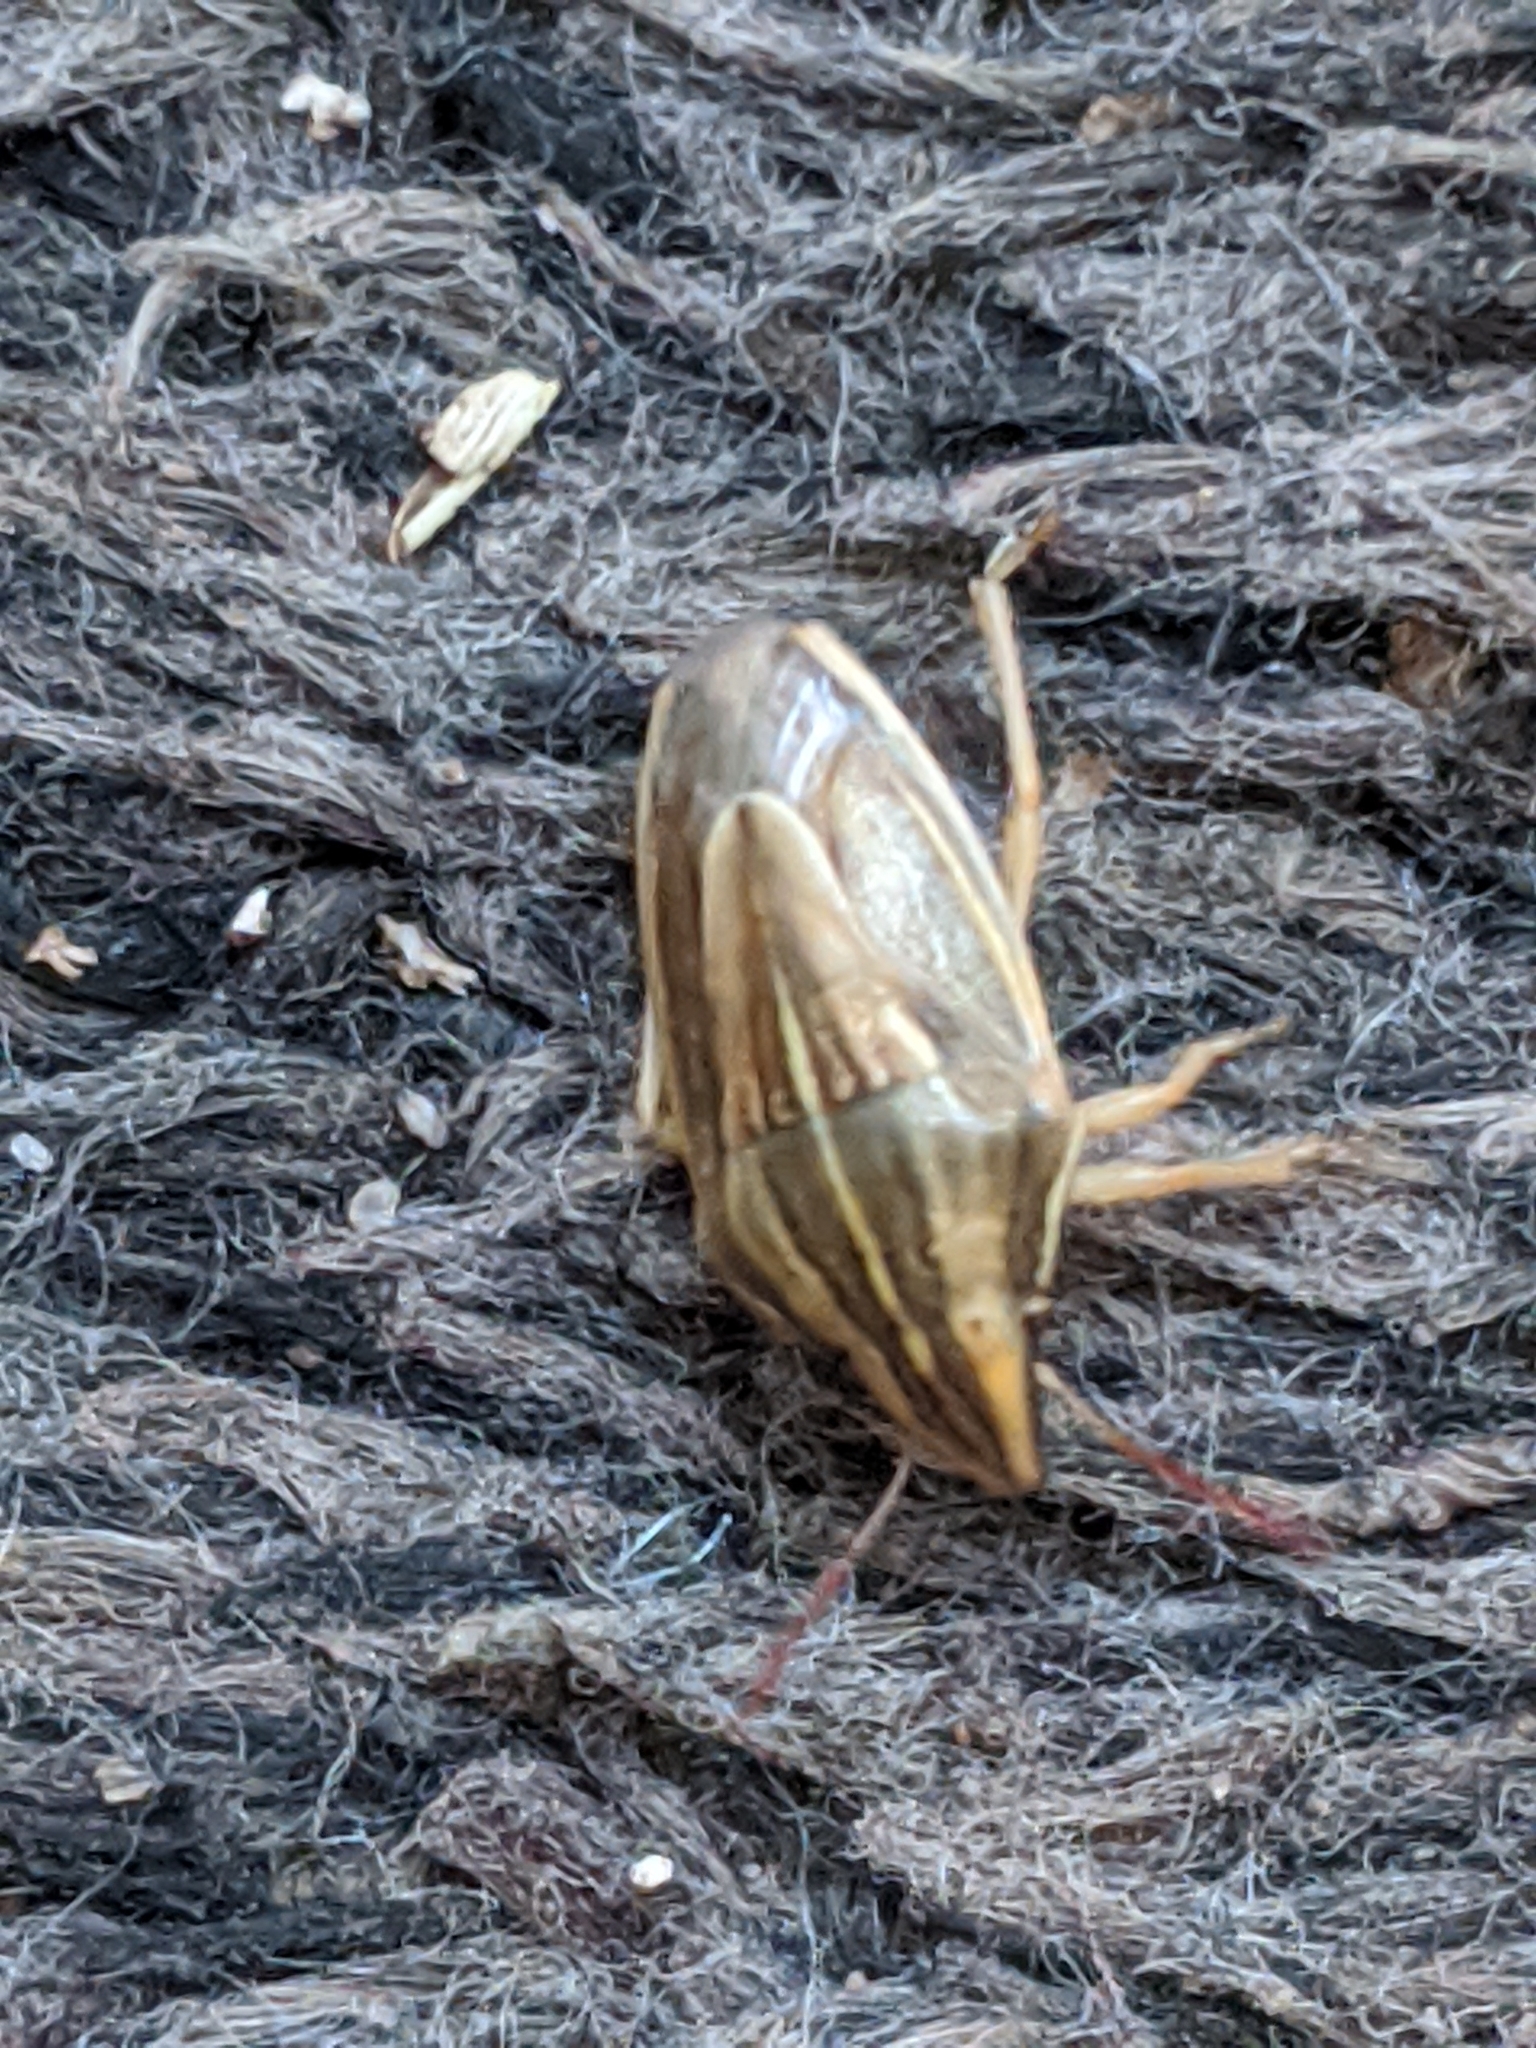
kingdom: Animalia
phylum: Arthropoda
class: Insecta
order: Hemiptera
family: Pentatomidae
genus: Aelia
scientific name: Aelia acuminata
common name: Bishop's mitre
